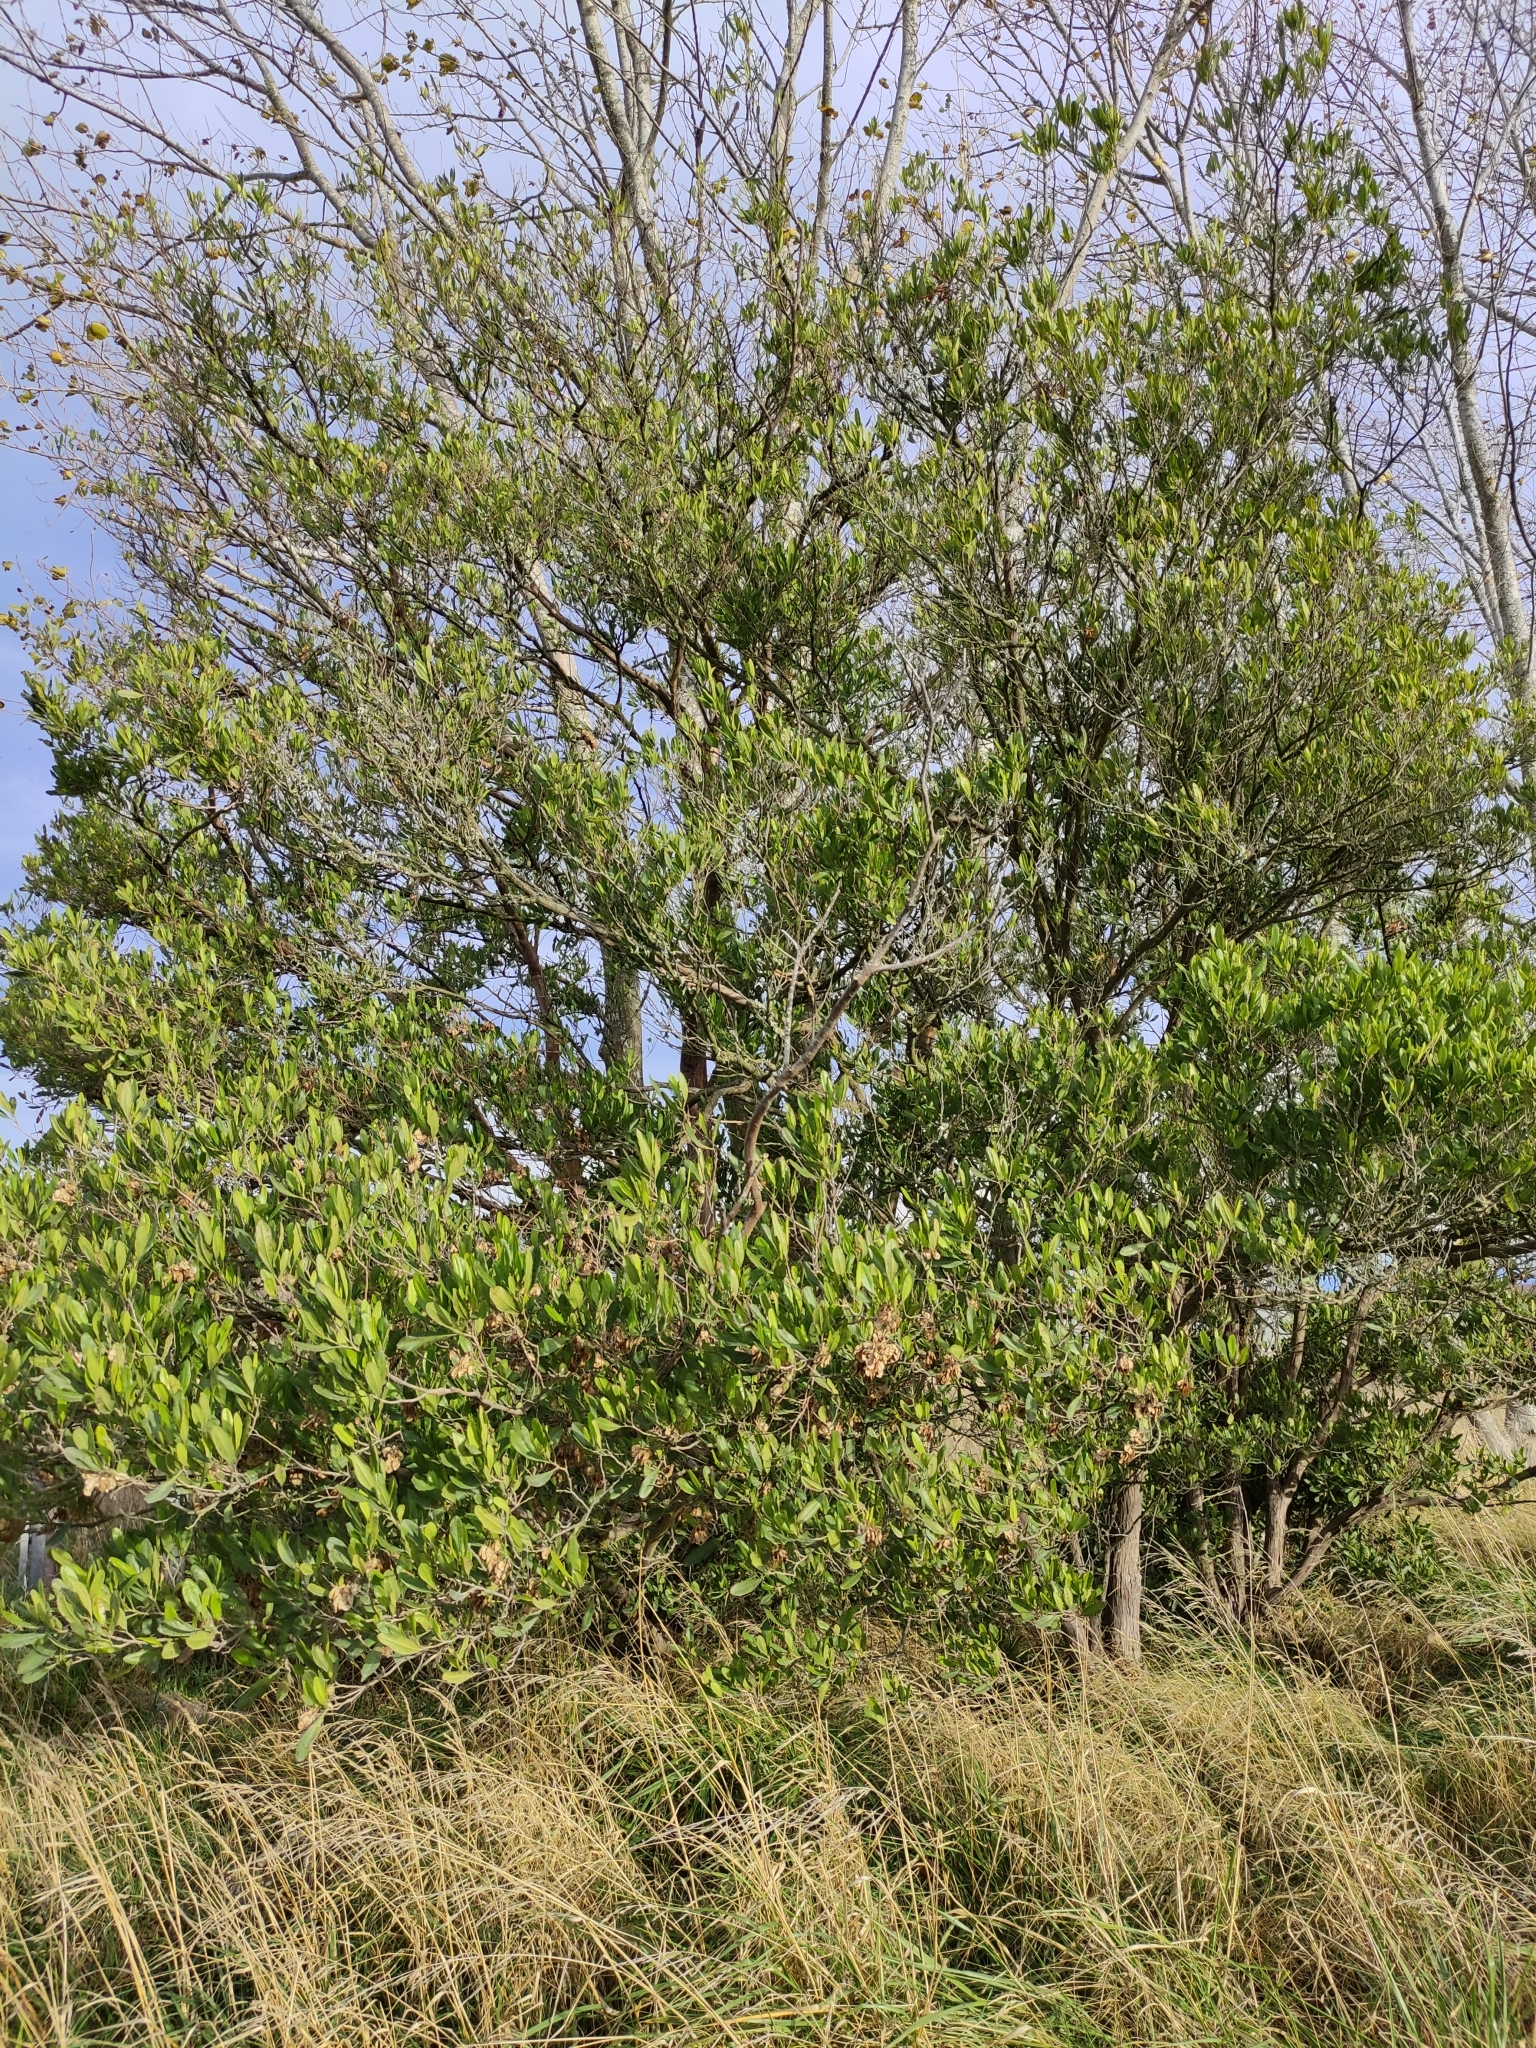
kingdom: Plantae
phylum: Tracheophyta
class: Magnoliopsida
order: Sapindales
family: Sapindaceae
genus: Dodonaea
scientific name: Dodonaea viscosa
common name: Hopbush
